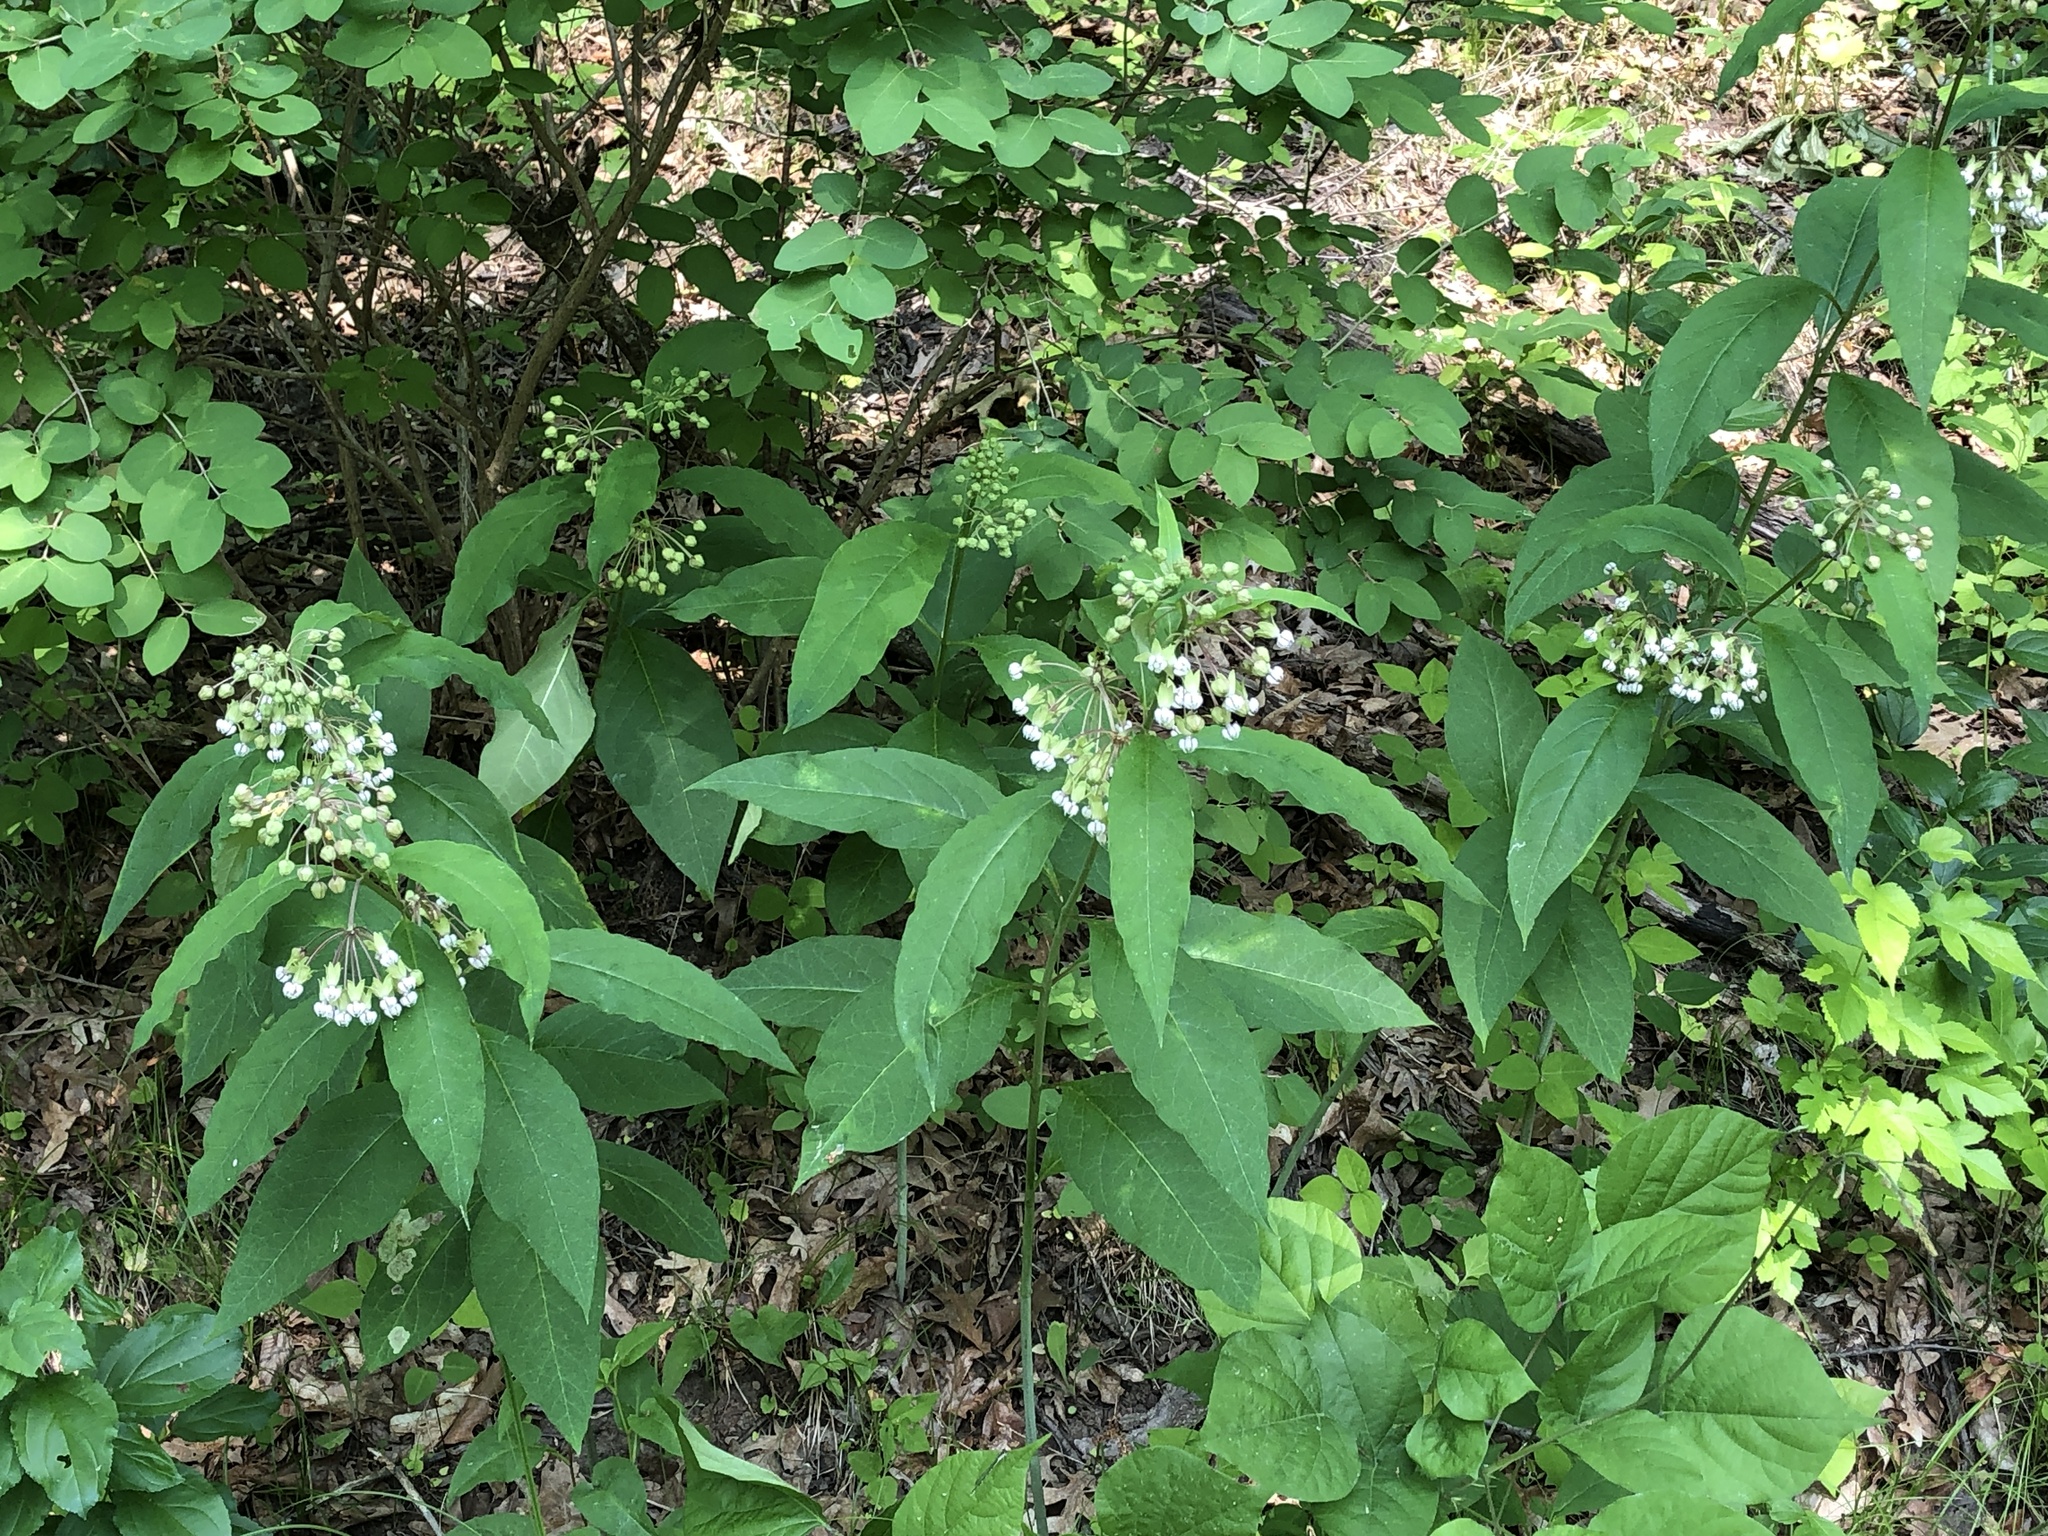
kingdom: Plantae
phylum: Tracheophyta
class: Magnoliopsida
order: Gentianales
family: Apocynaceae
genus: Asclepias
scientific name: Asclepias exaltata
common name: Poke milkweed
